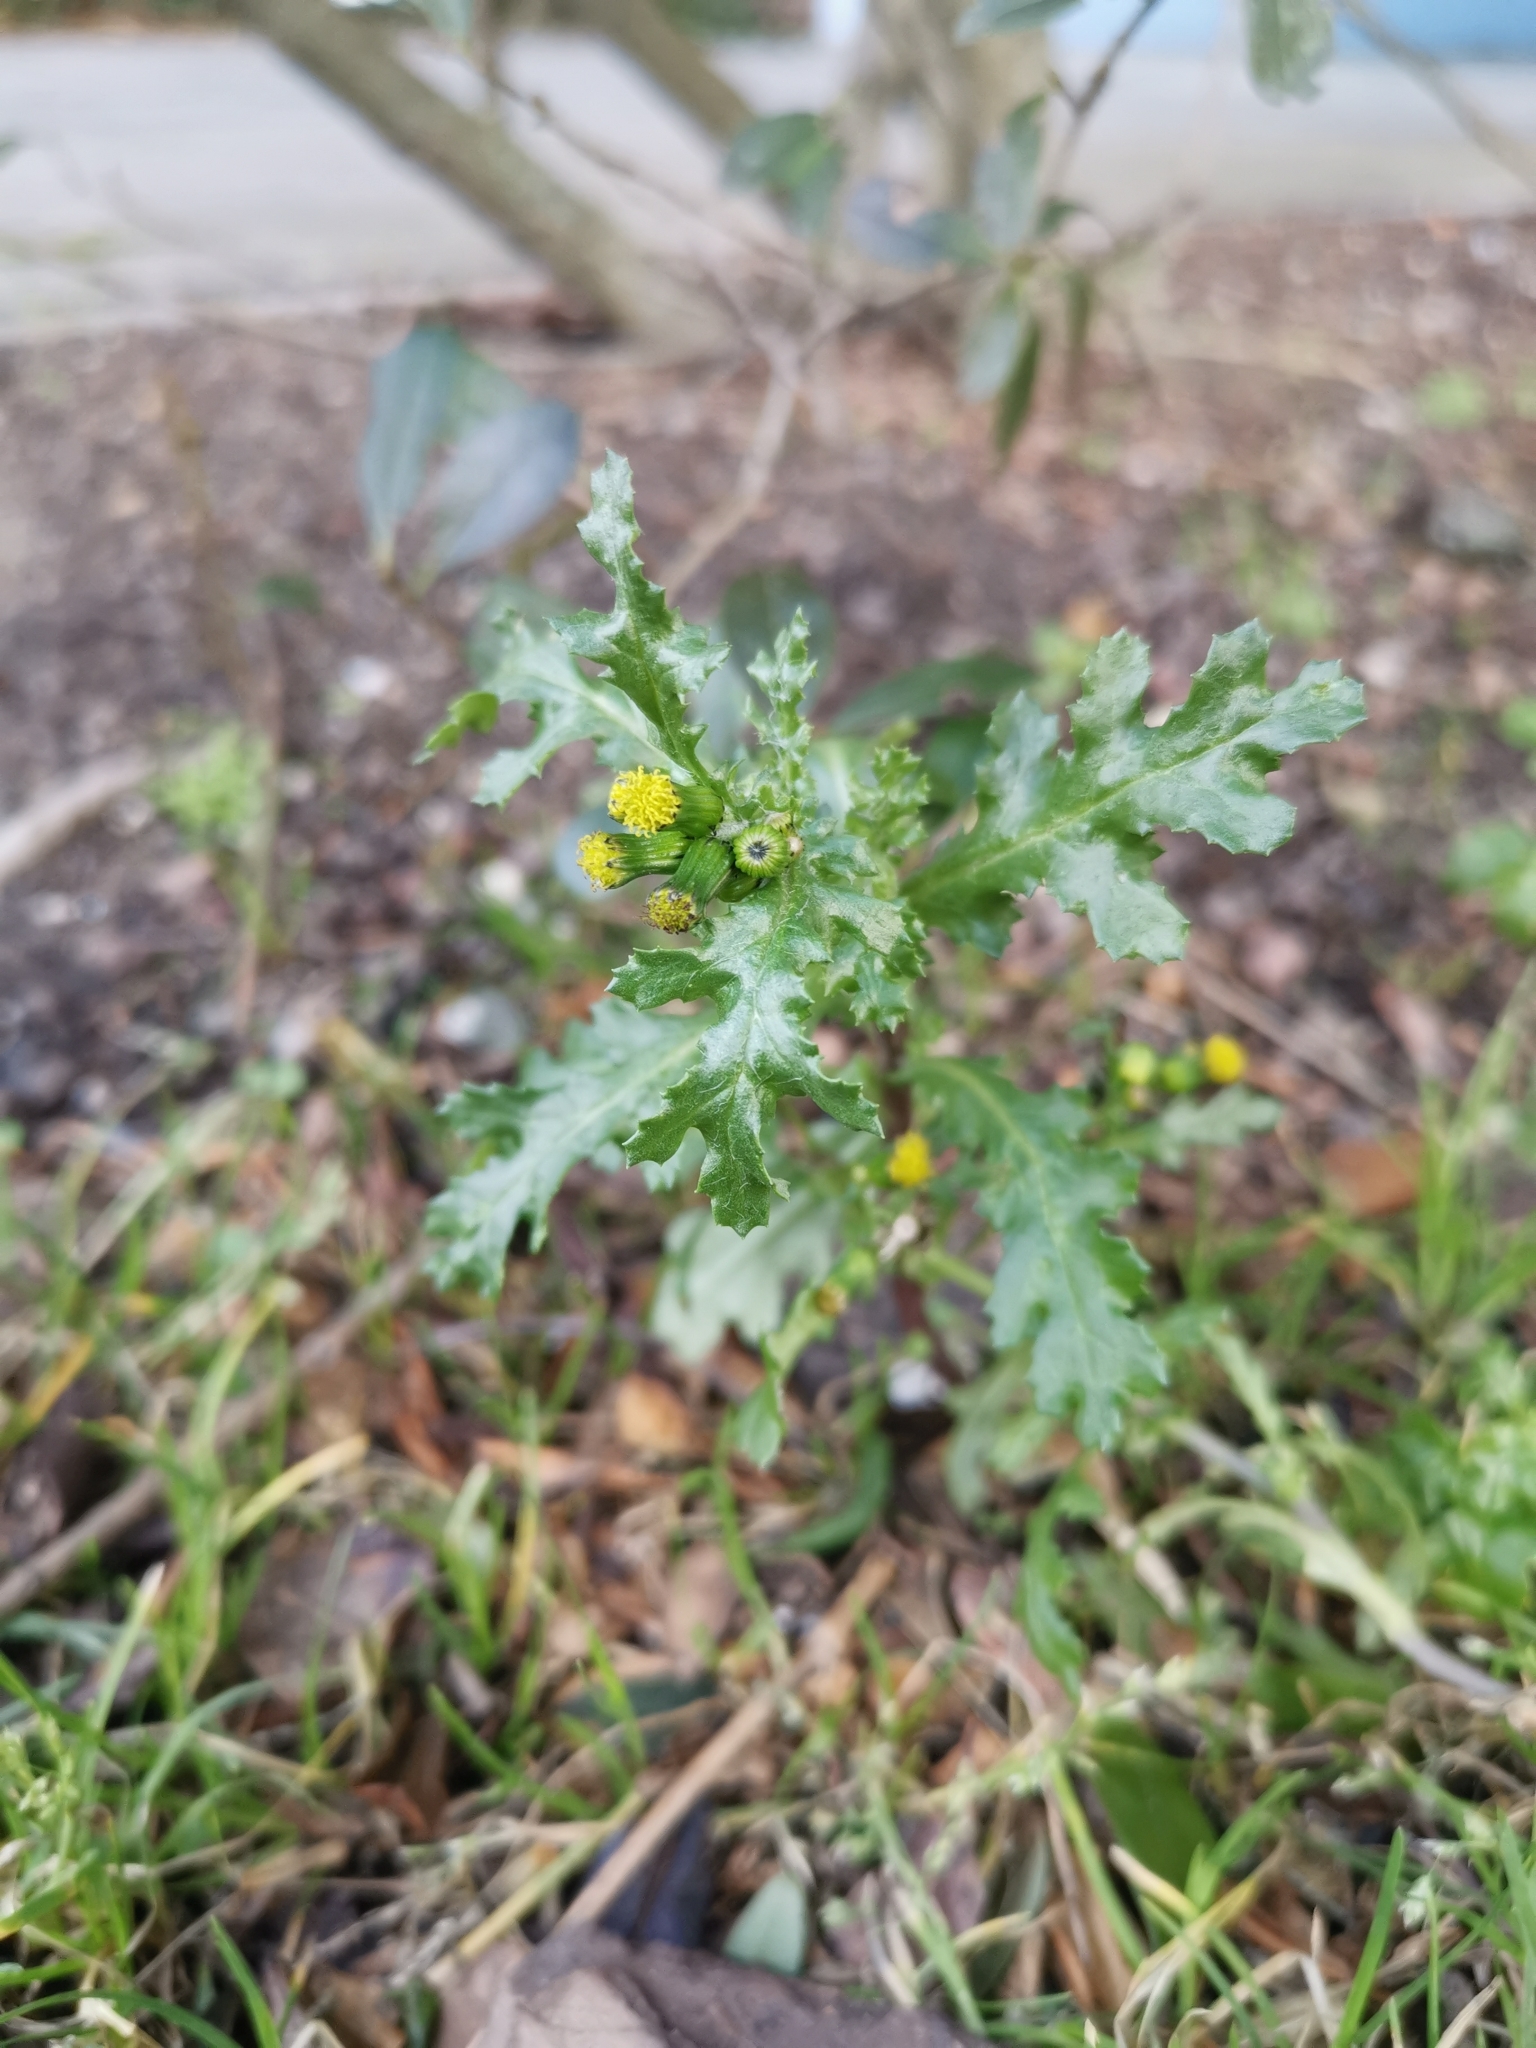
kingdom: Plantae
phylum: Tracheophyta
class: Magnoliopsida
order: Asterales
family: Asteraceae
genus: Senecio
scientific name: Senecio vulgaris
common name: Old-man-in-the-spring
